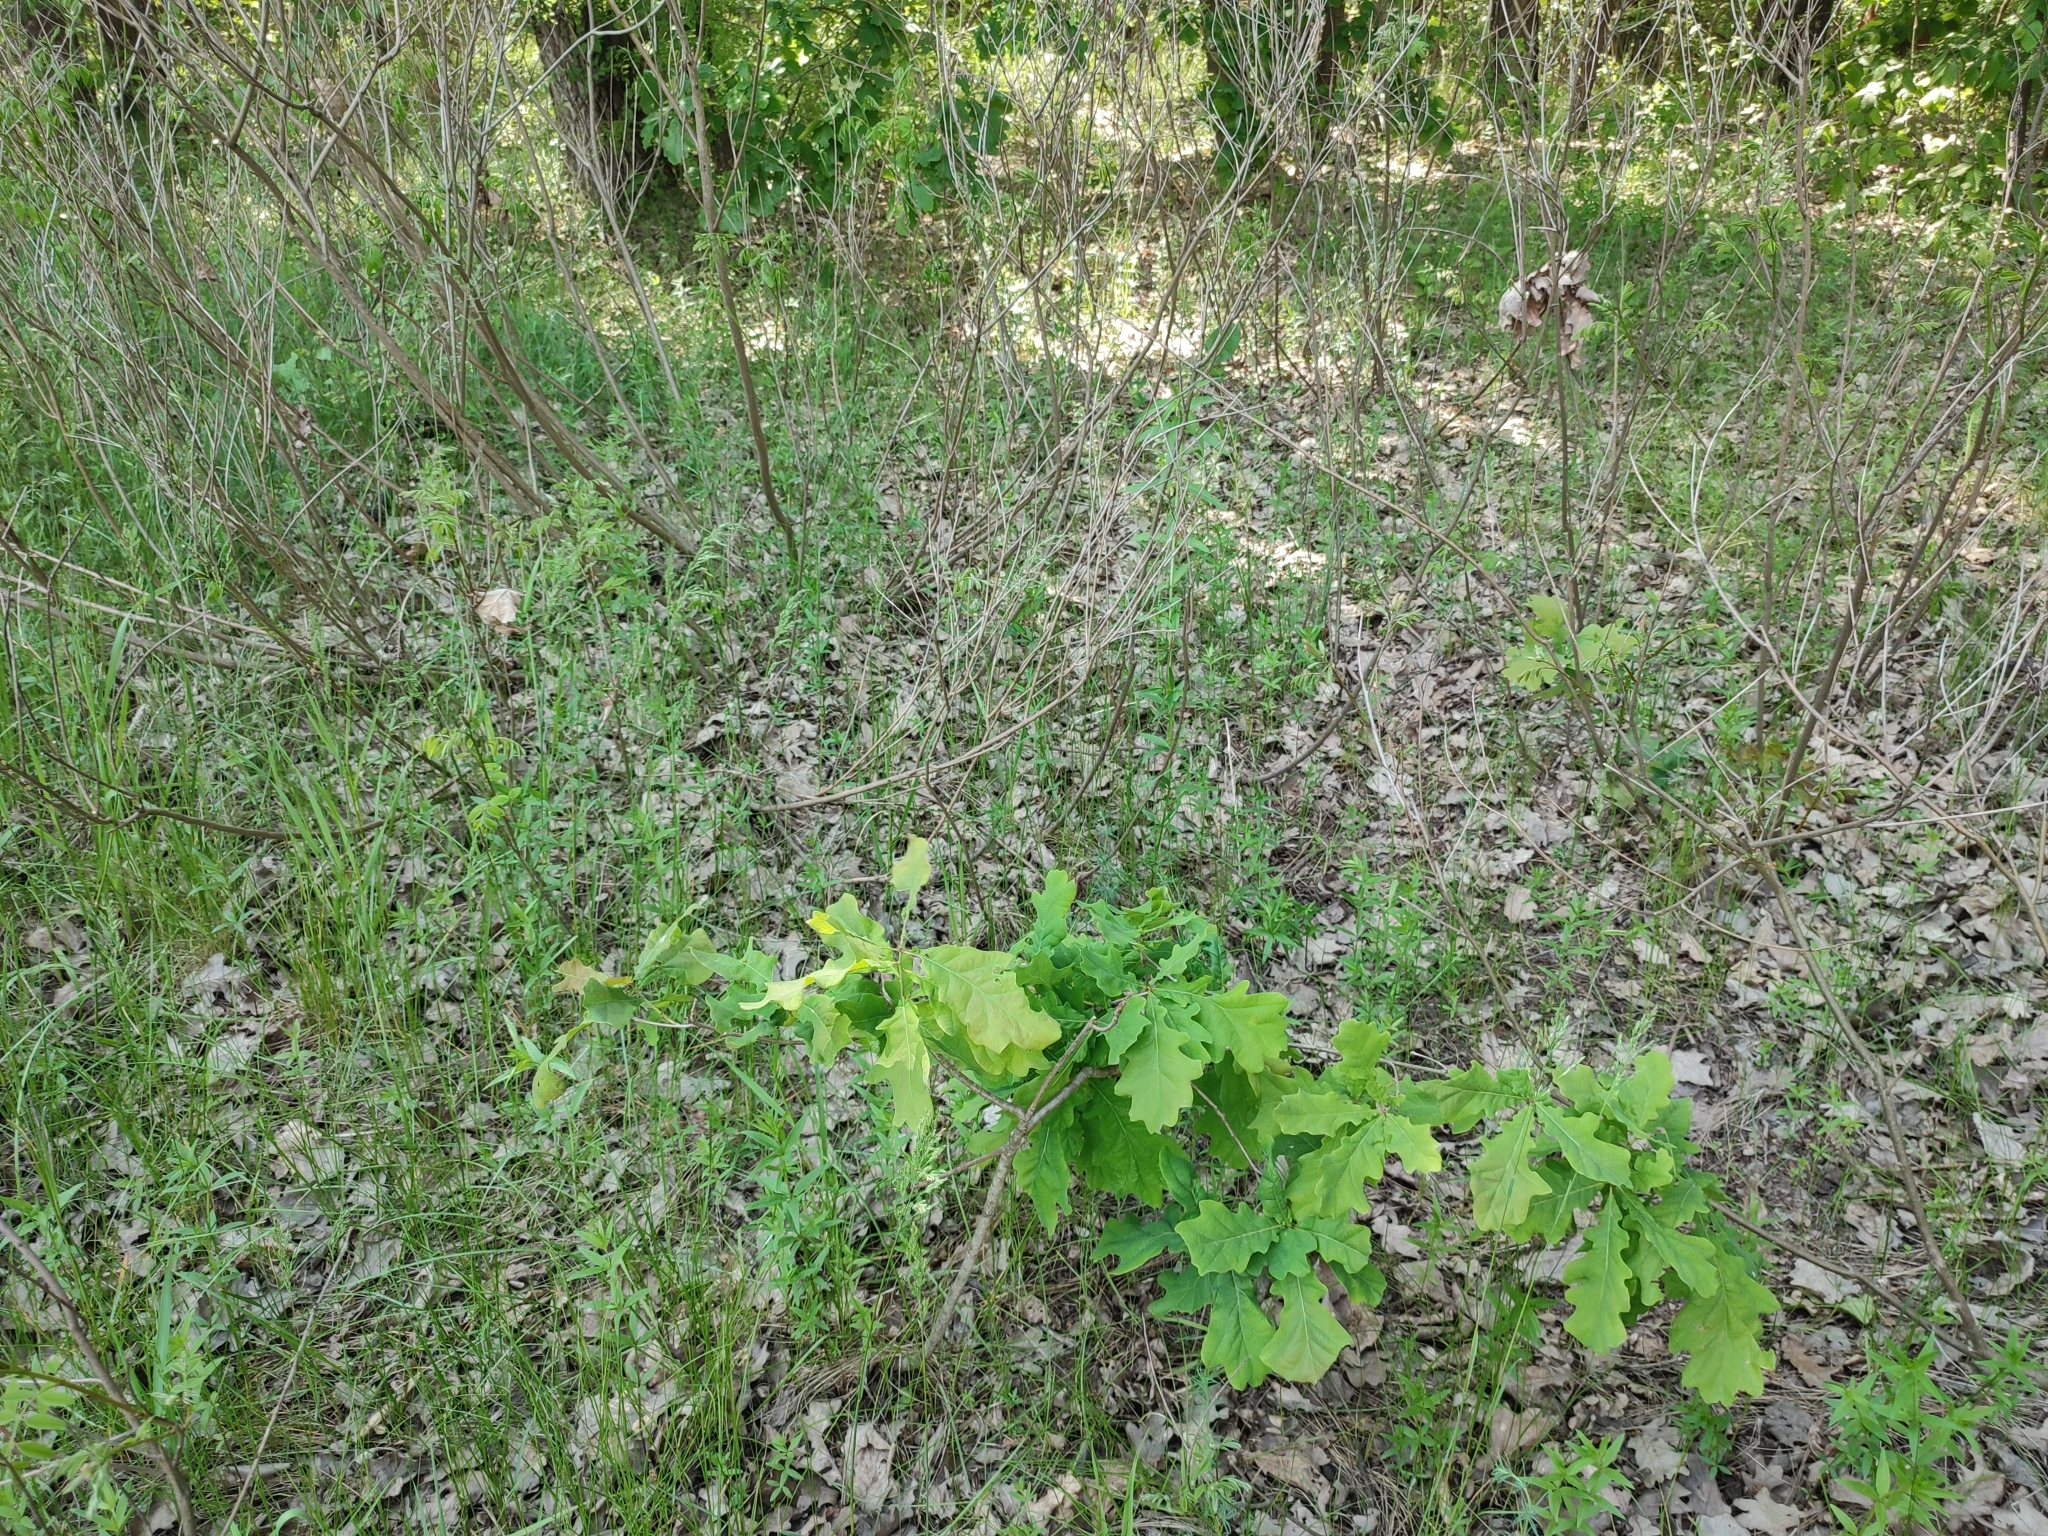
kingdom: Plantae
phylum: Tracheophyta
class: Magnoliopsida
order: Fagales
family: Fagaceae
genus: Quercus
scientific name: Quercus robur
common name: Pedunculate oak
